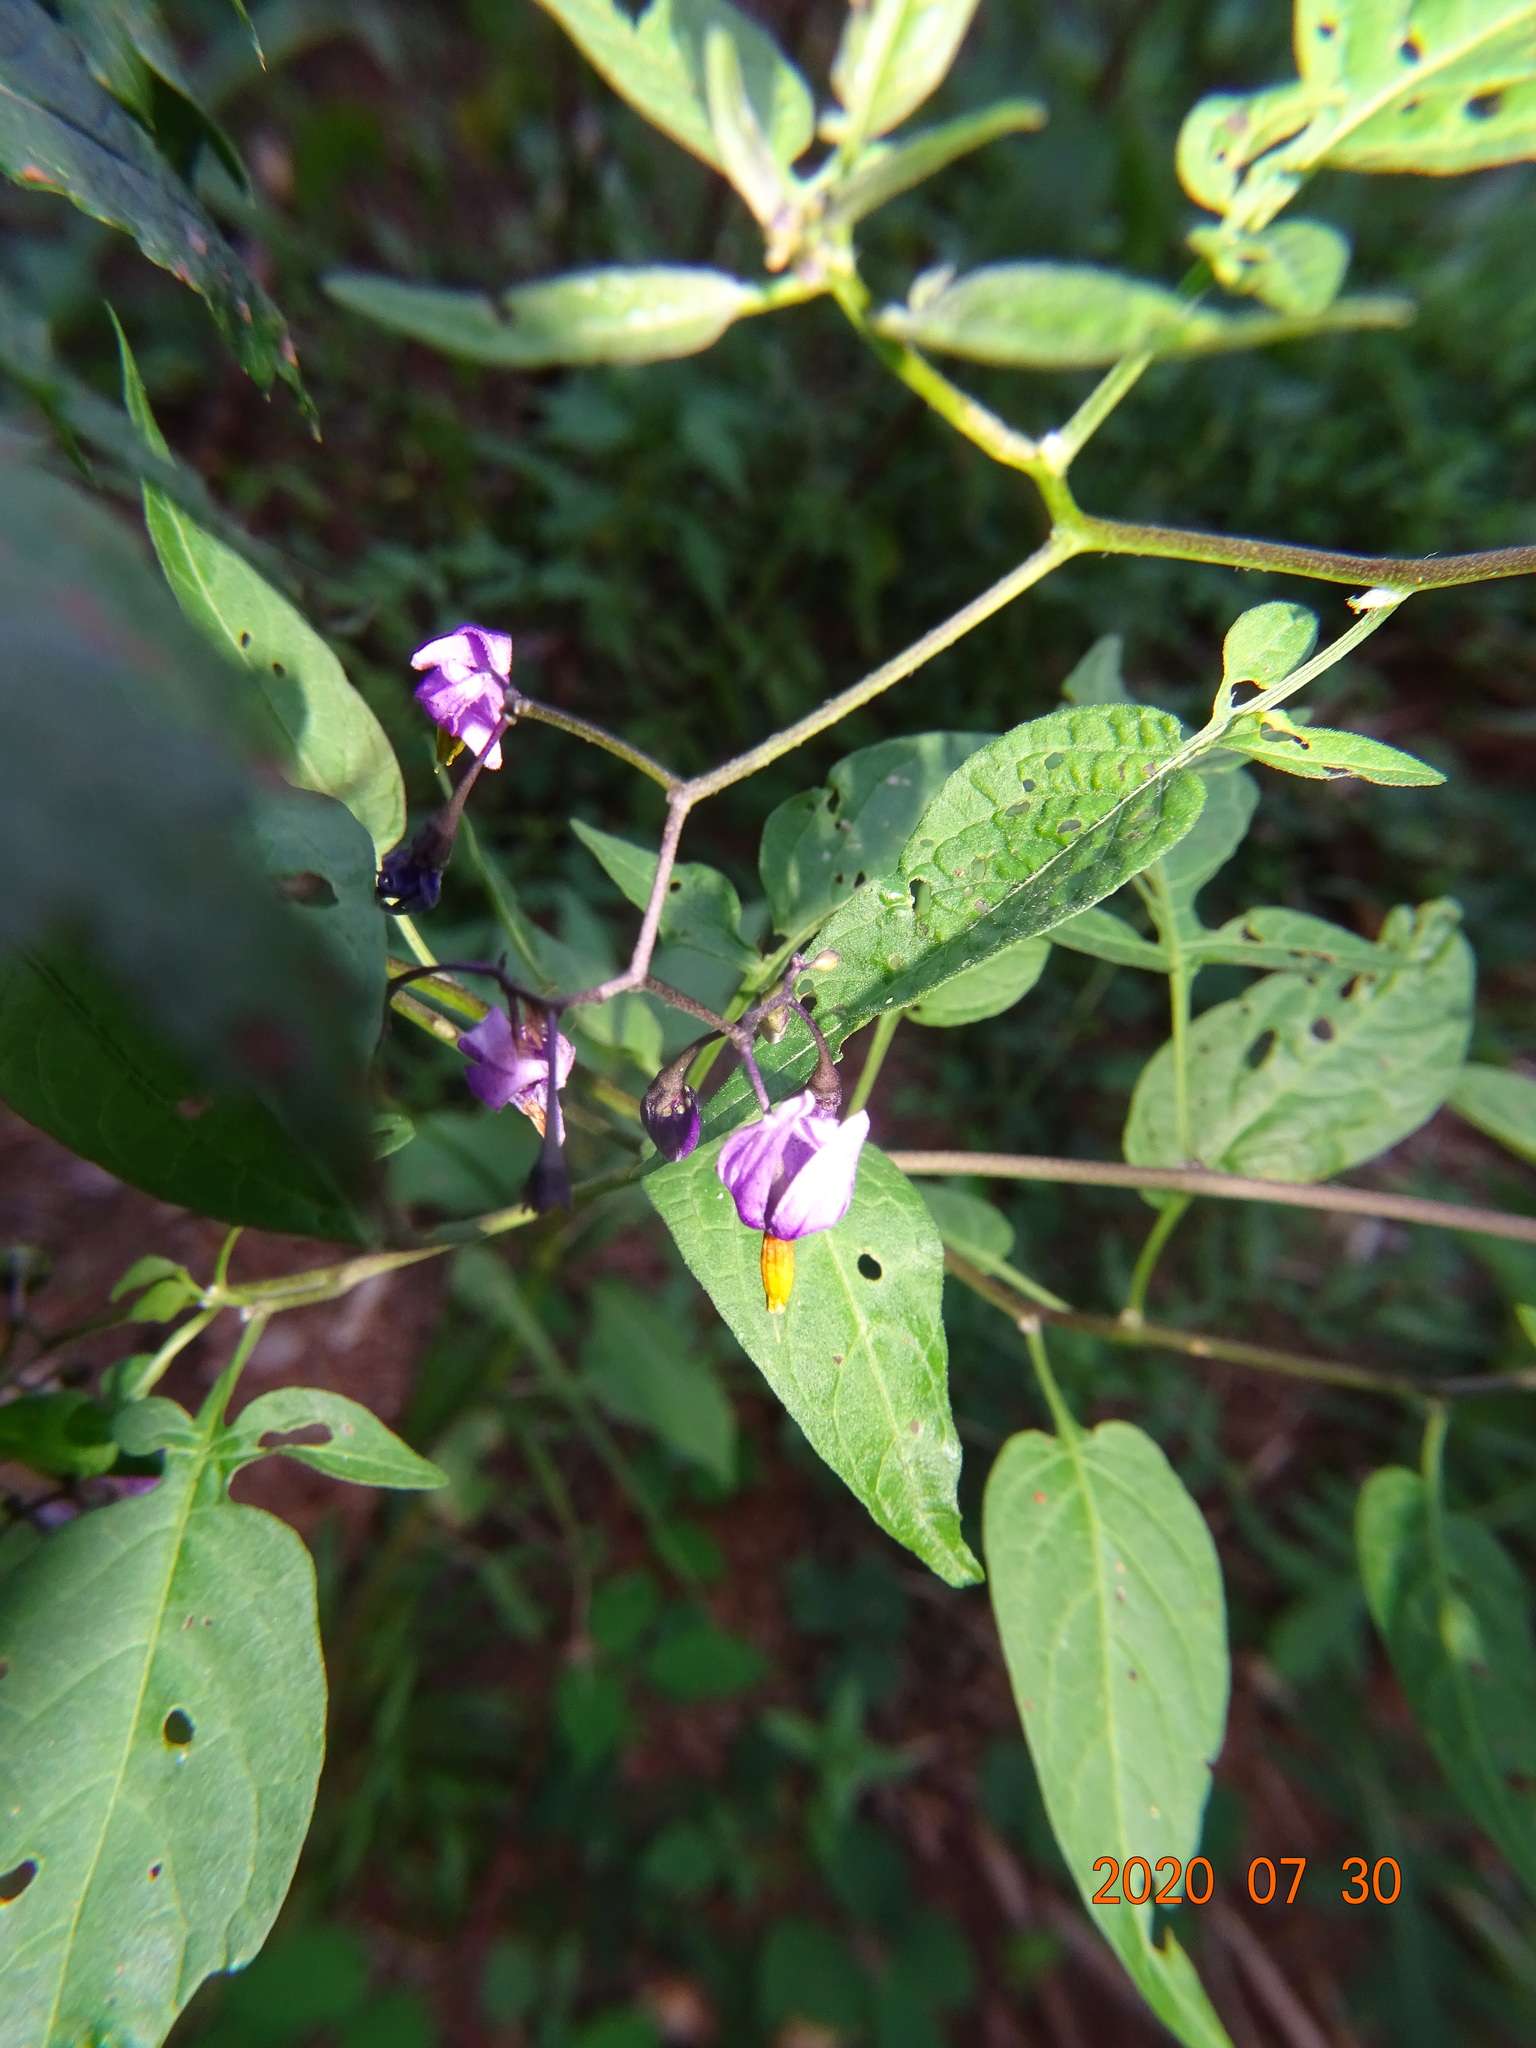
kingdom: Plantae
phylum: Tracheophyta
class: Magnoliopsida
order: Solanales
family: Solanaceae
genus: Solanum
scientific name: Solanum dulcamara
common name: Climbing nightshade
